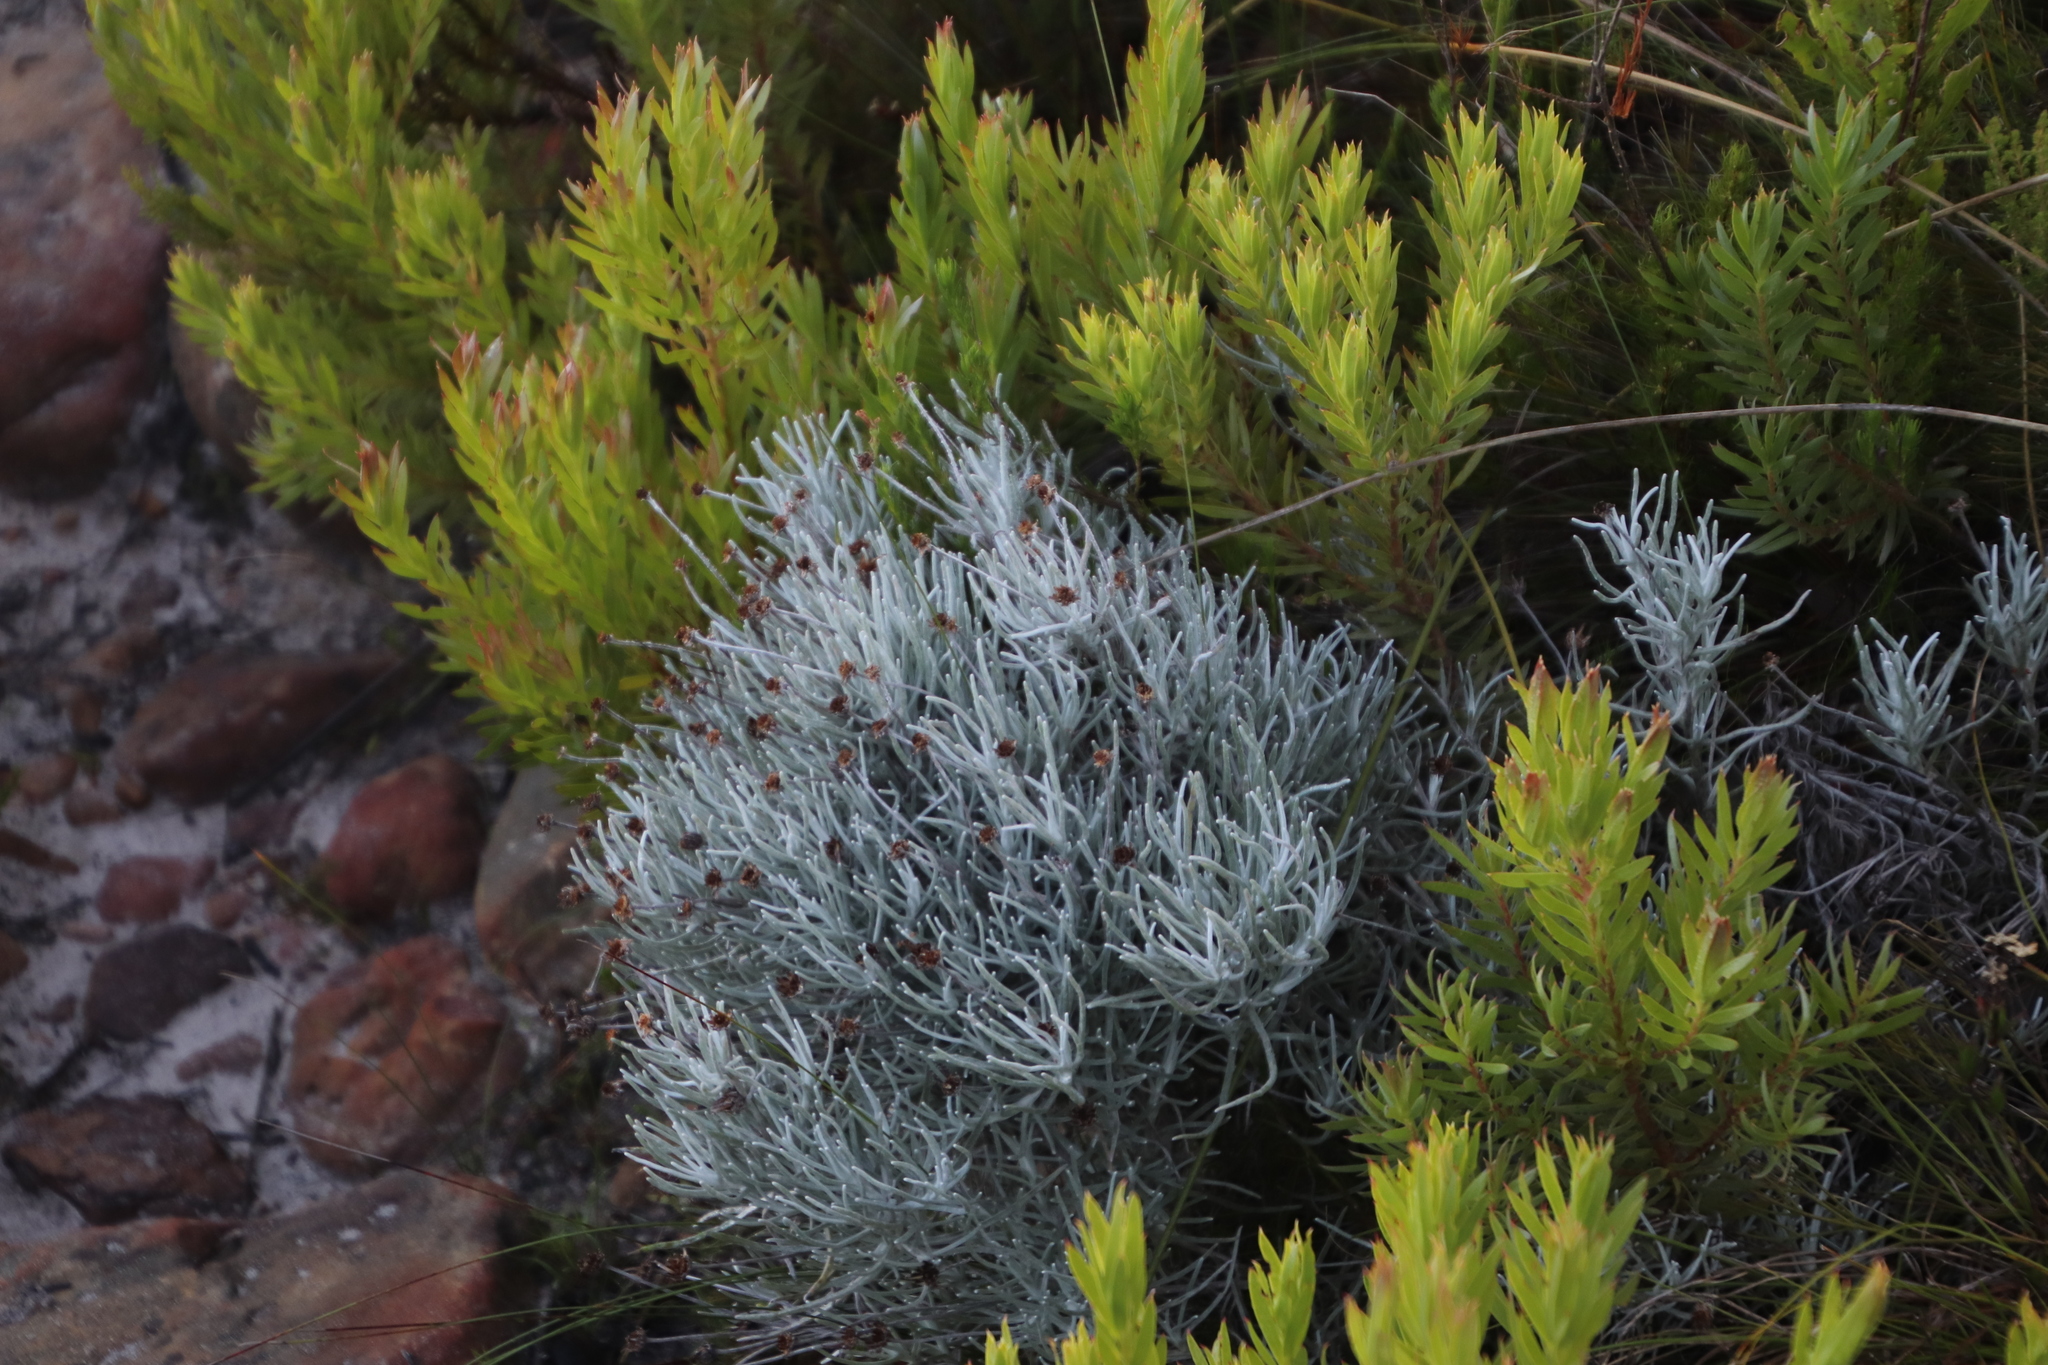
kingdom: Plantae
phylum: Tracheophyta
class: Magnoliopsida
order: Asterales
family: Asteraceae
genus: Syncarpha
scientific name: Syncarpha gnaphaloides
